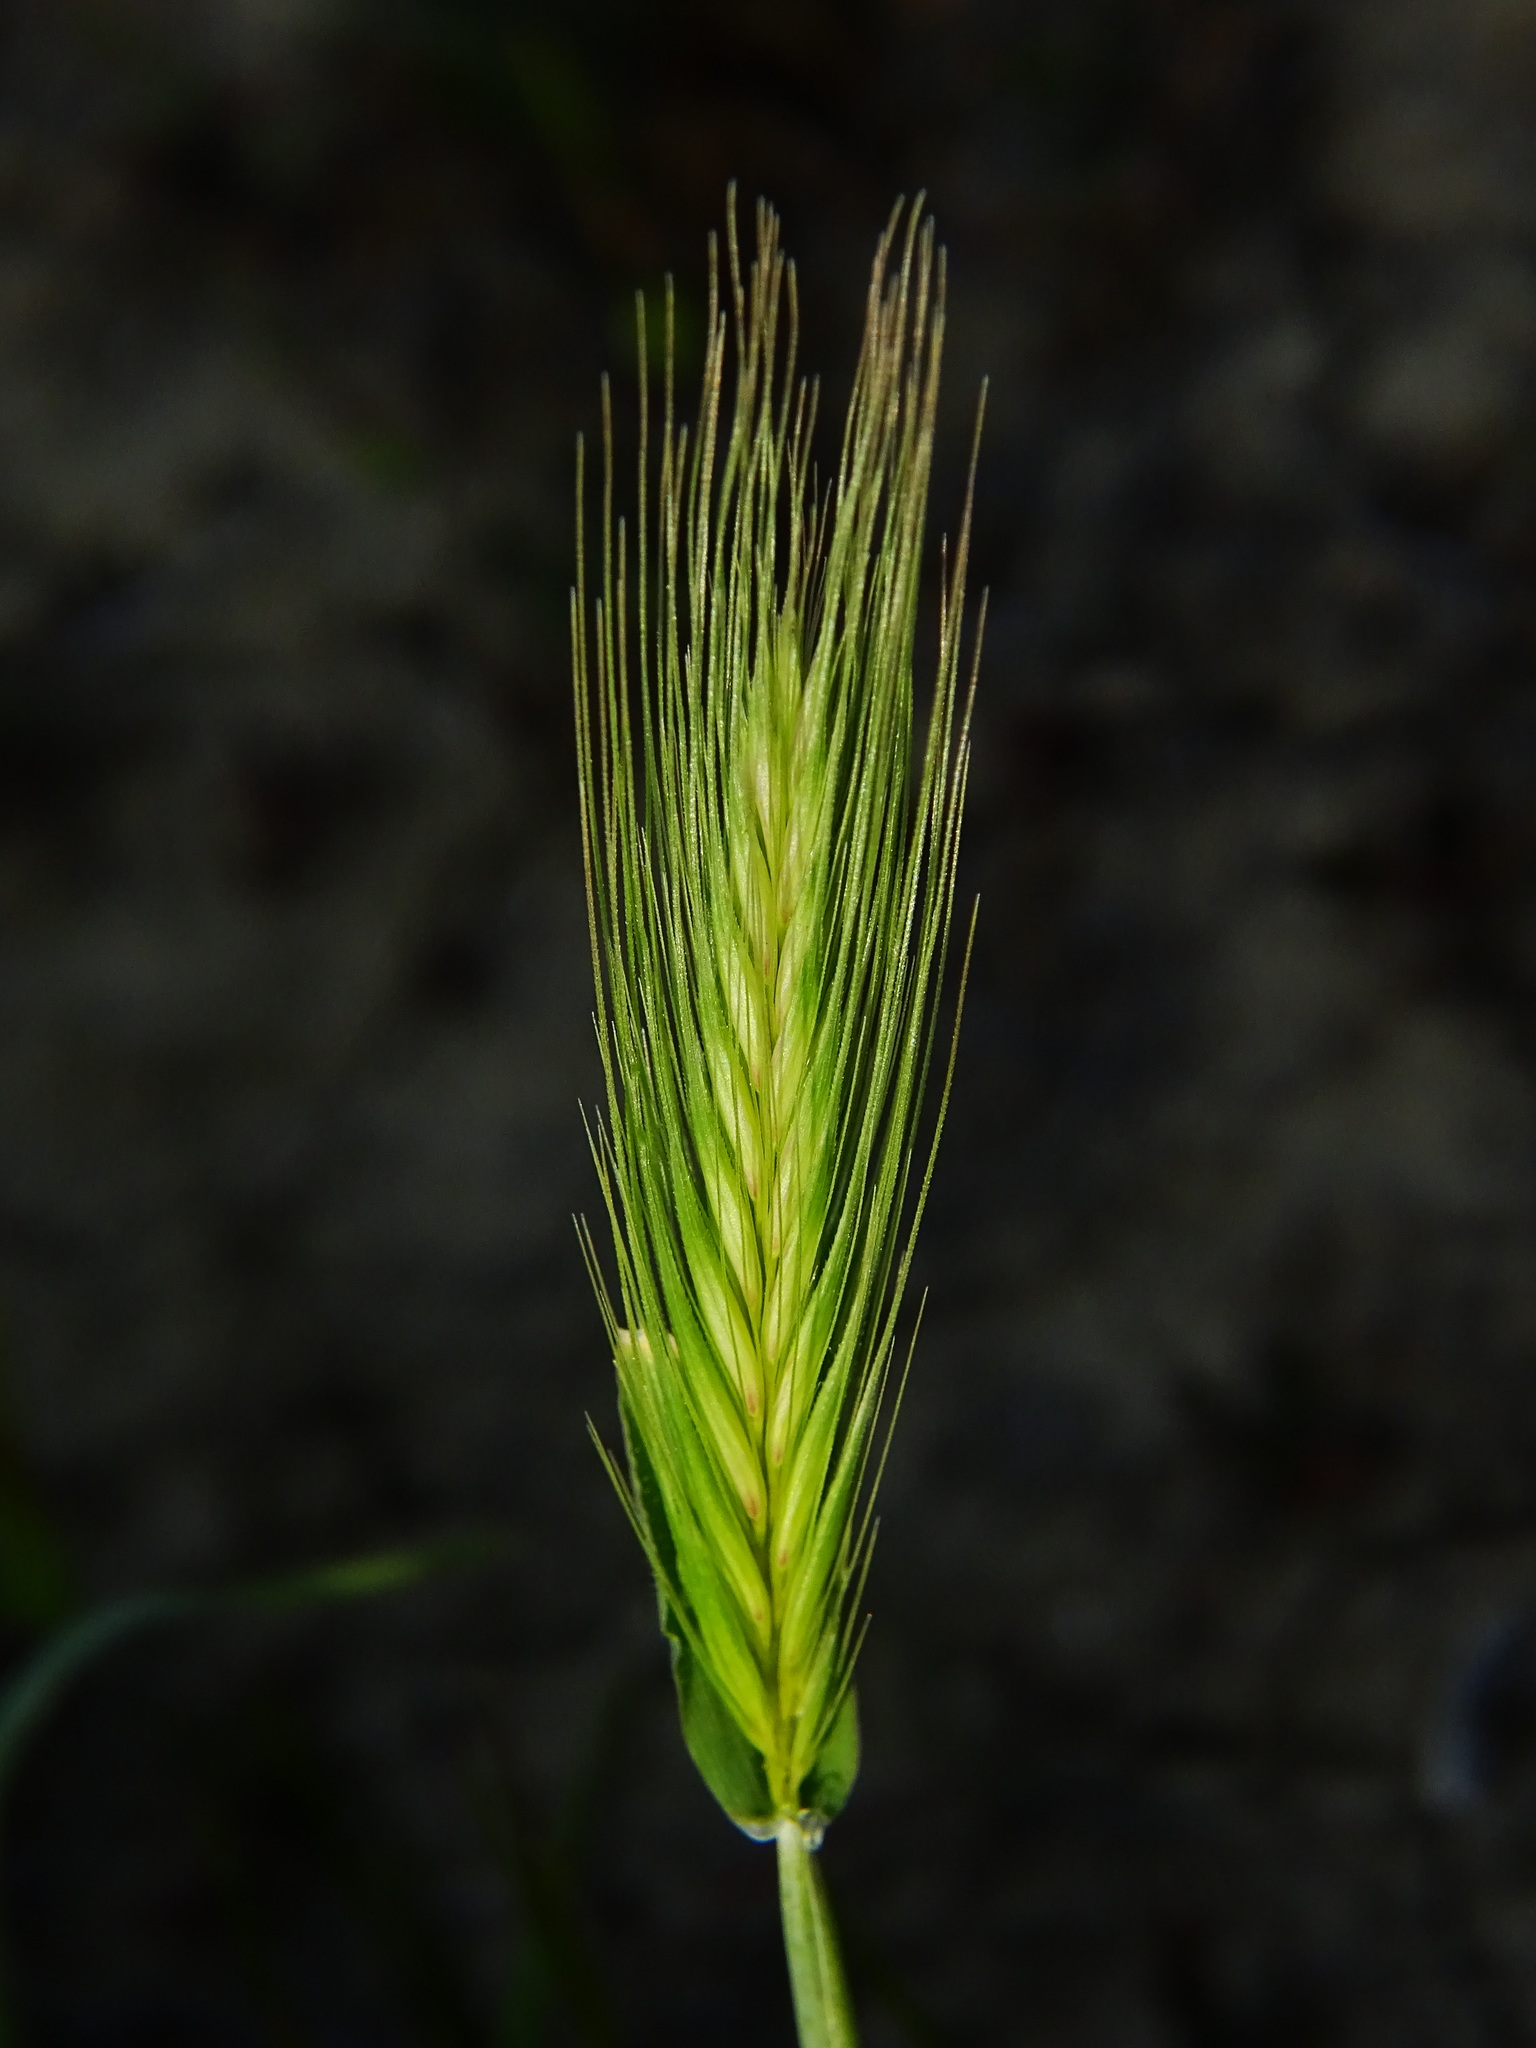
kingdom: Plantae
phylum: Tracheophyta
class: Liliopsida
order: Poales
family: Poaceae
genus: Hordeum
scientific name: Hordeum murinum
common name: Wall barley
